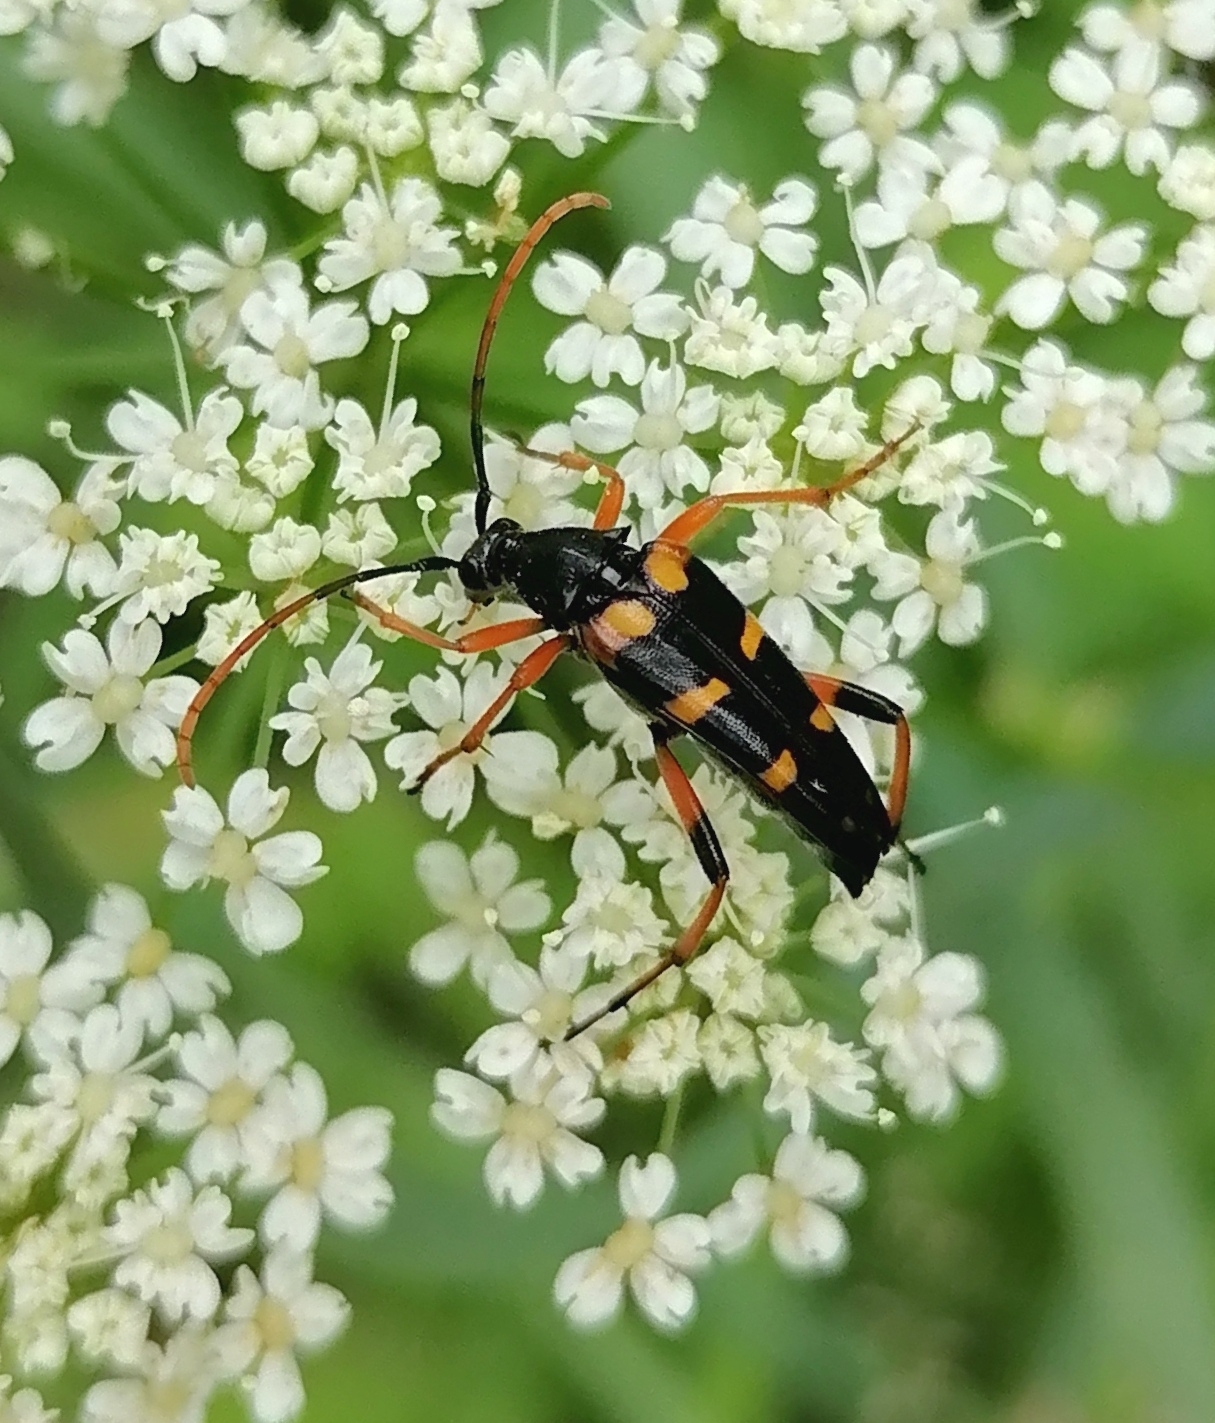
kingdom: Animalia
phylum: Arthropoda
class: Insecta
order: Coleoptera
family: Cerambycidae
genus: Strangalia
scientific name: Strangalia attenuata
